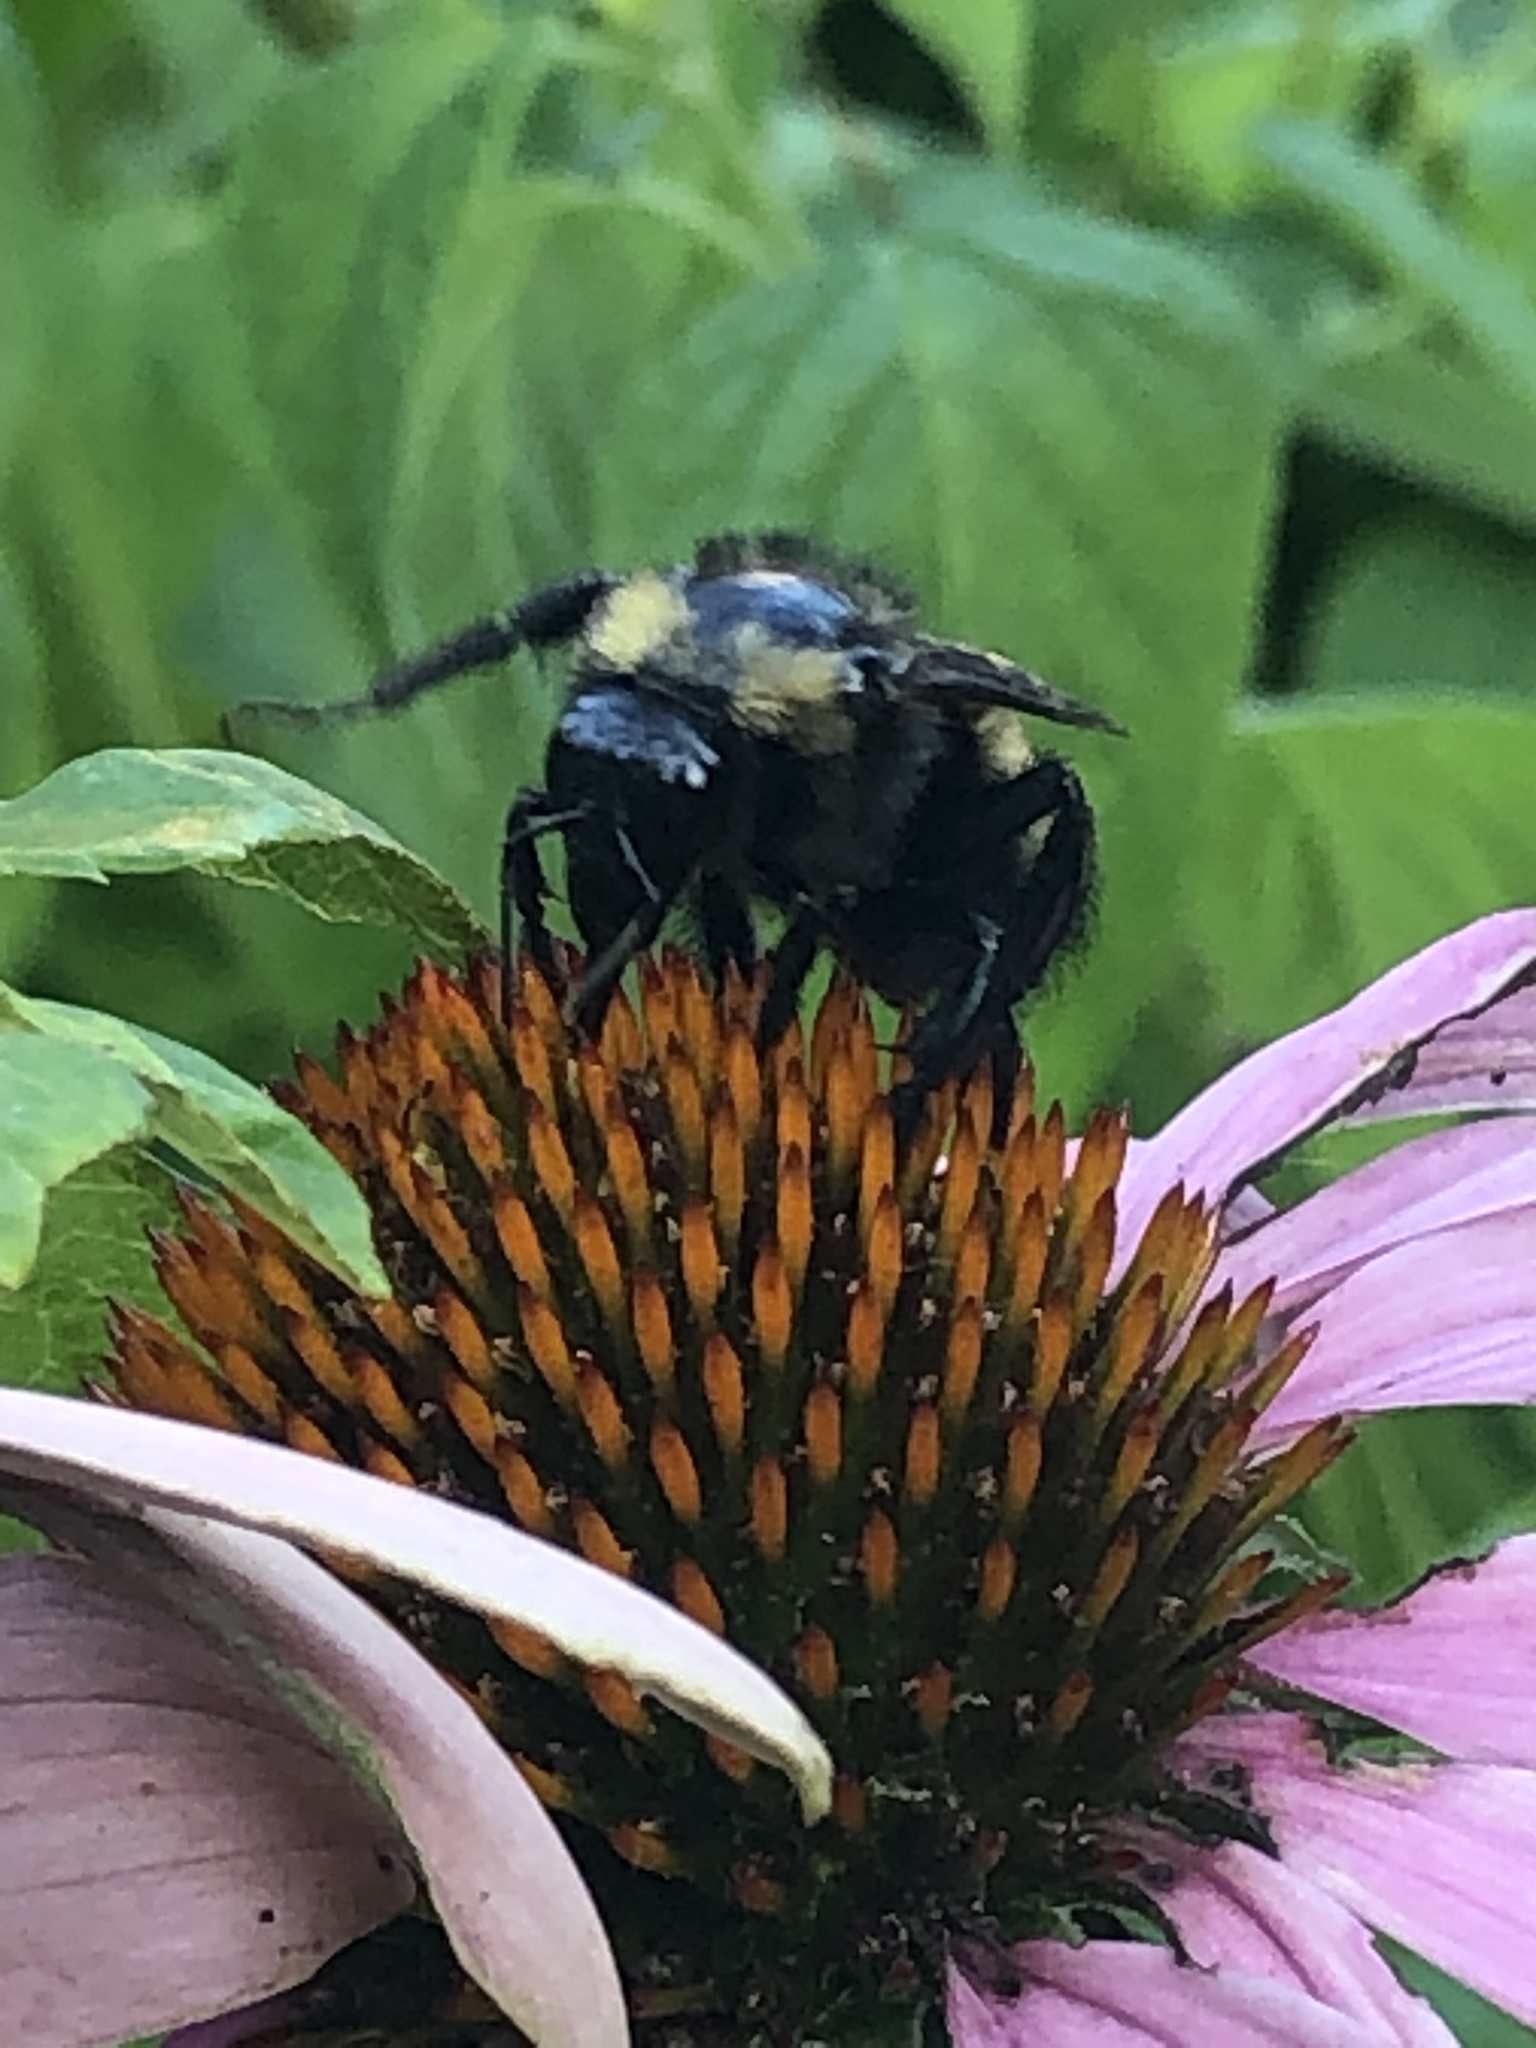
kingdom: Animalia
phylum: Arthropoda
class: Insecta
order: Hymenoptera
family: Apidae
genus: Bombus
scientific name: Bombus pensylvanicus
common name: Bumble bee
